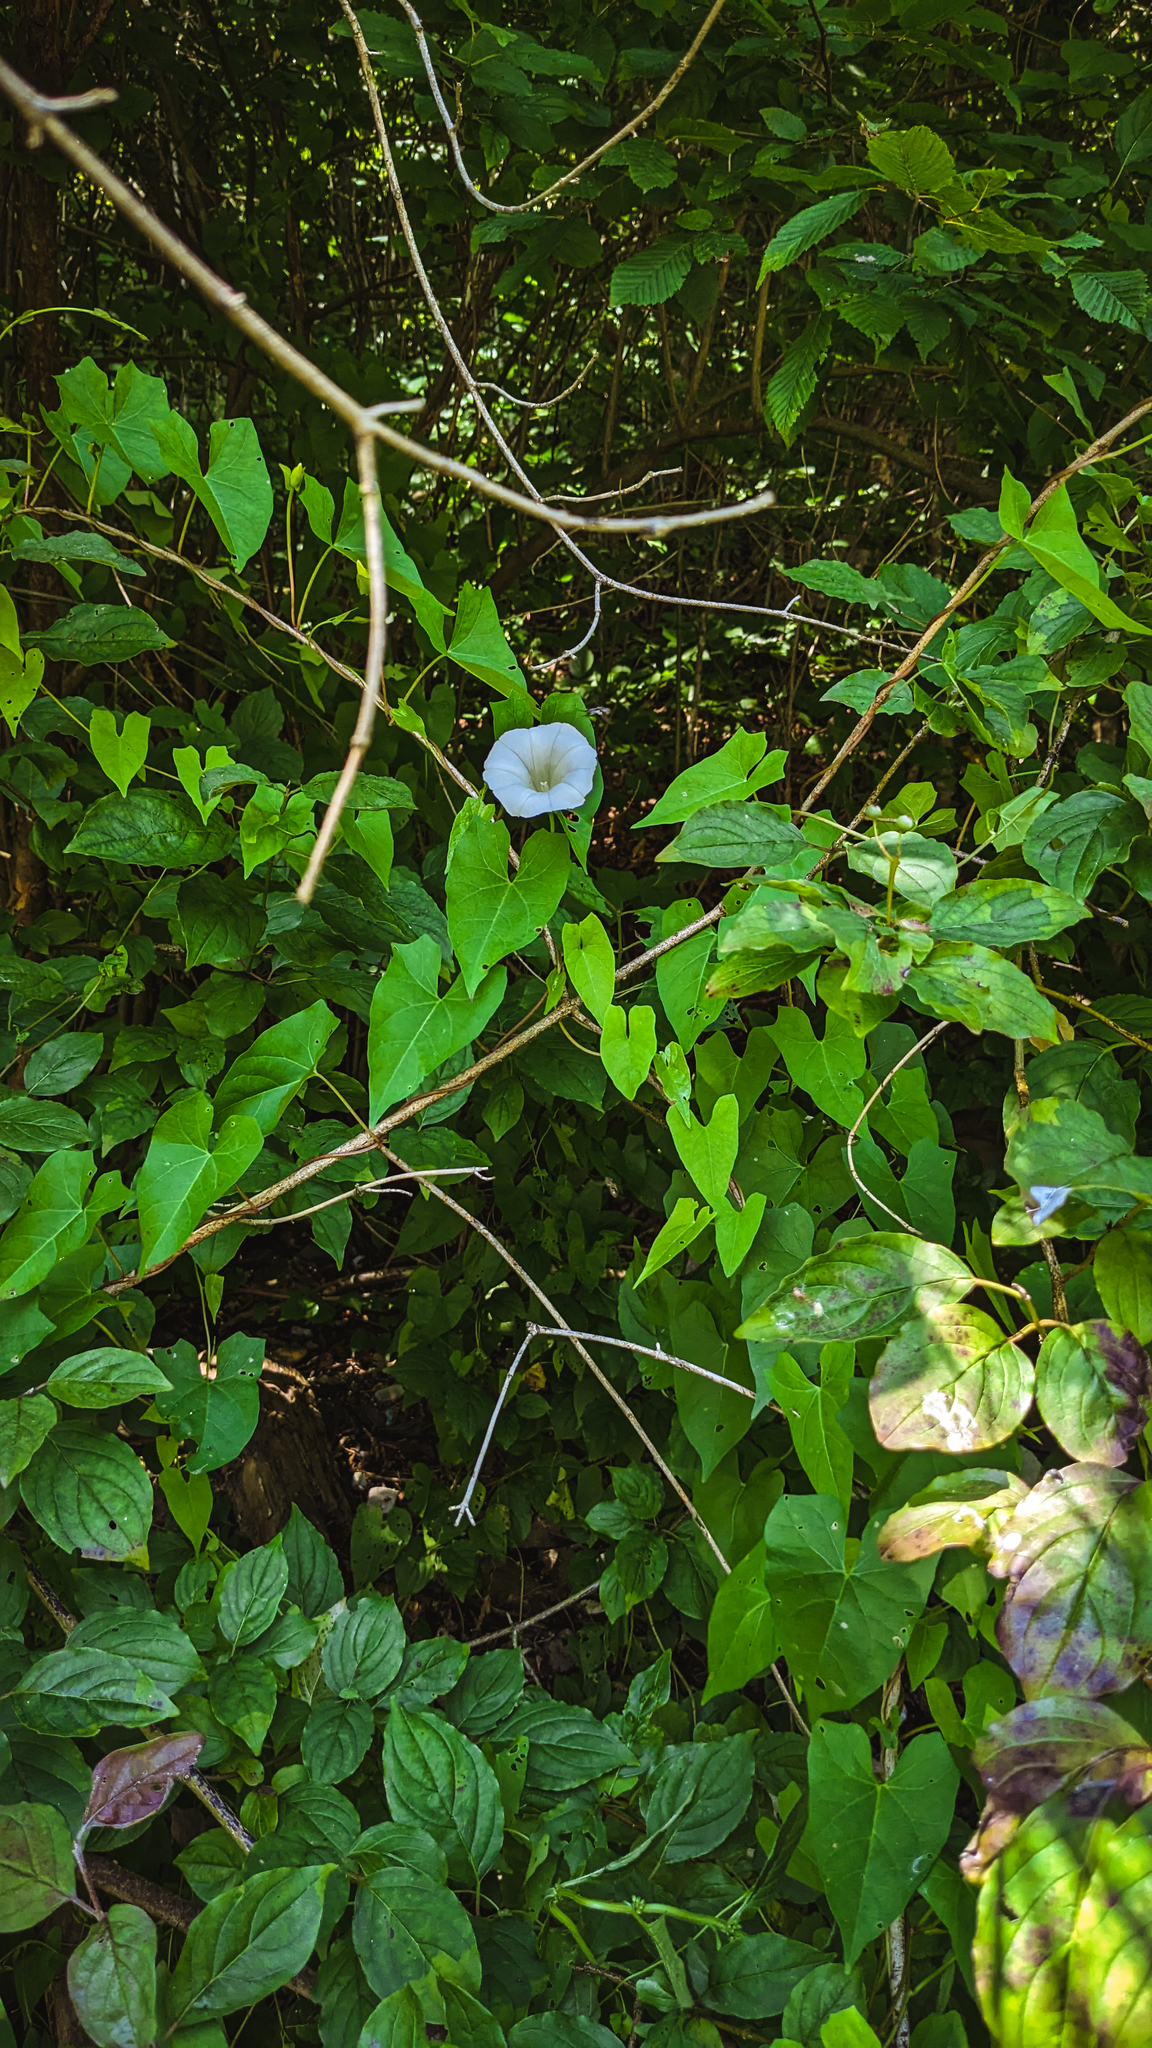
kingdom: Plantae
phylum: Tracheophyta
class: Magnoliopsida
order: Solanales
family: Convolvulaceae
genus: Calystegia
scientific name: Calystegia sepium
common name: Hedge bindweed
